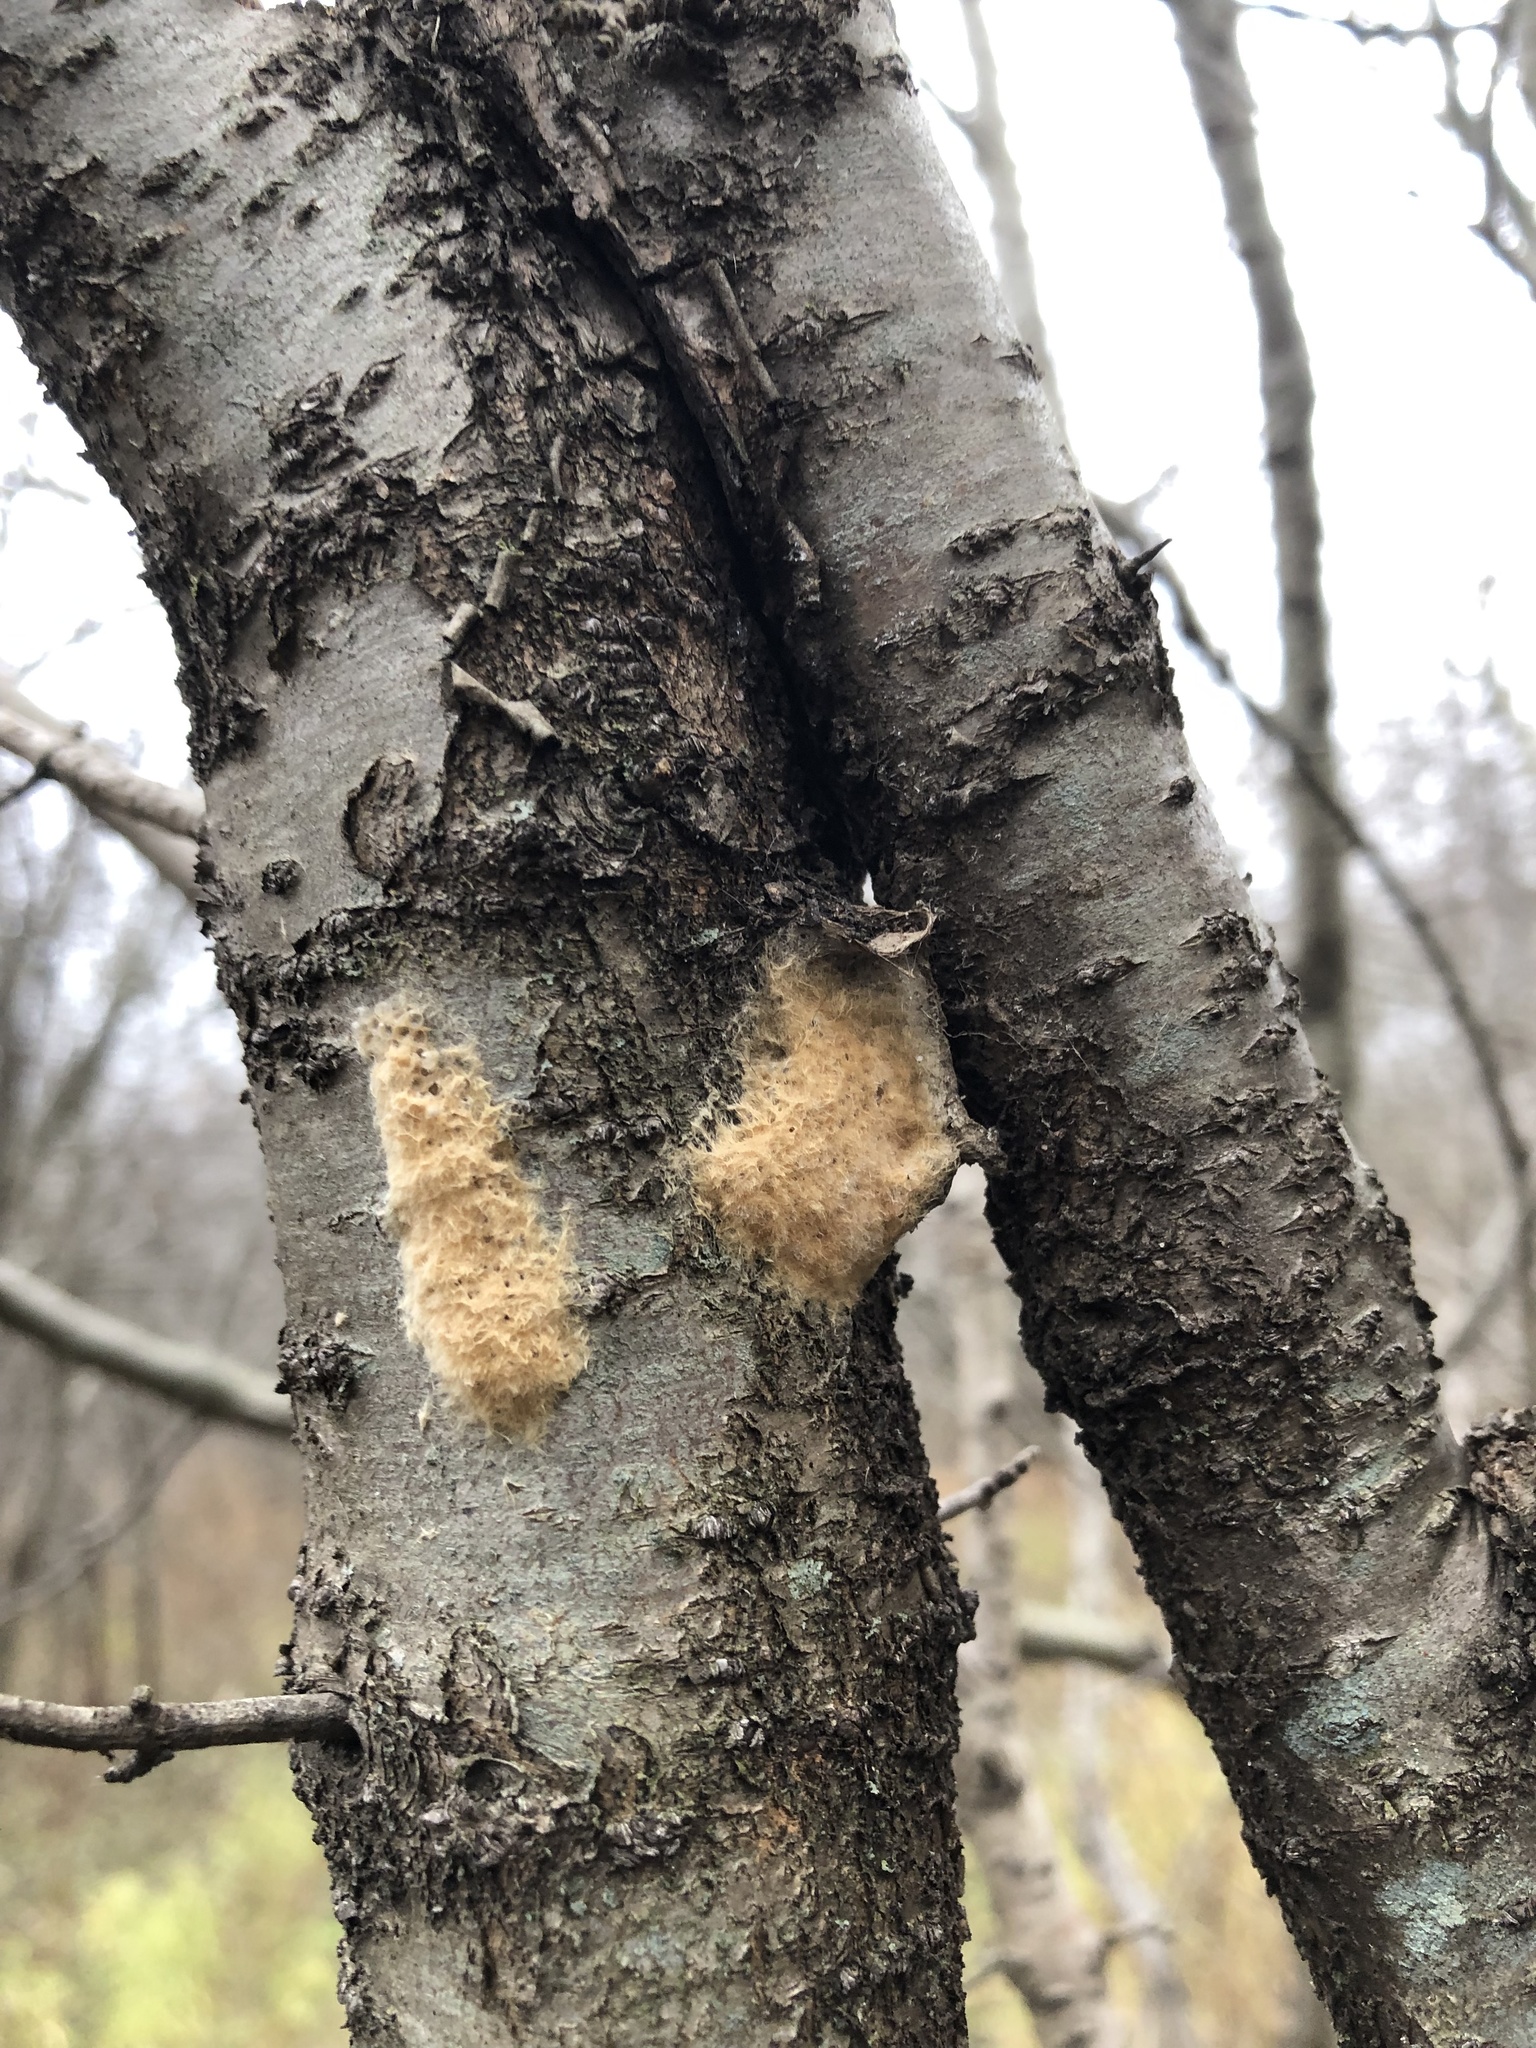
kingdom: Animalia
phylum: Arthropoda
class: Insecta
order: Lepidoptera
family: Erebidae
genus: Lymantria
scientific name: Lymantria dispar
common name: Gypsy moth
